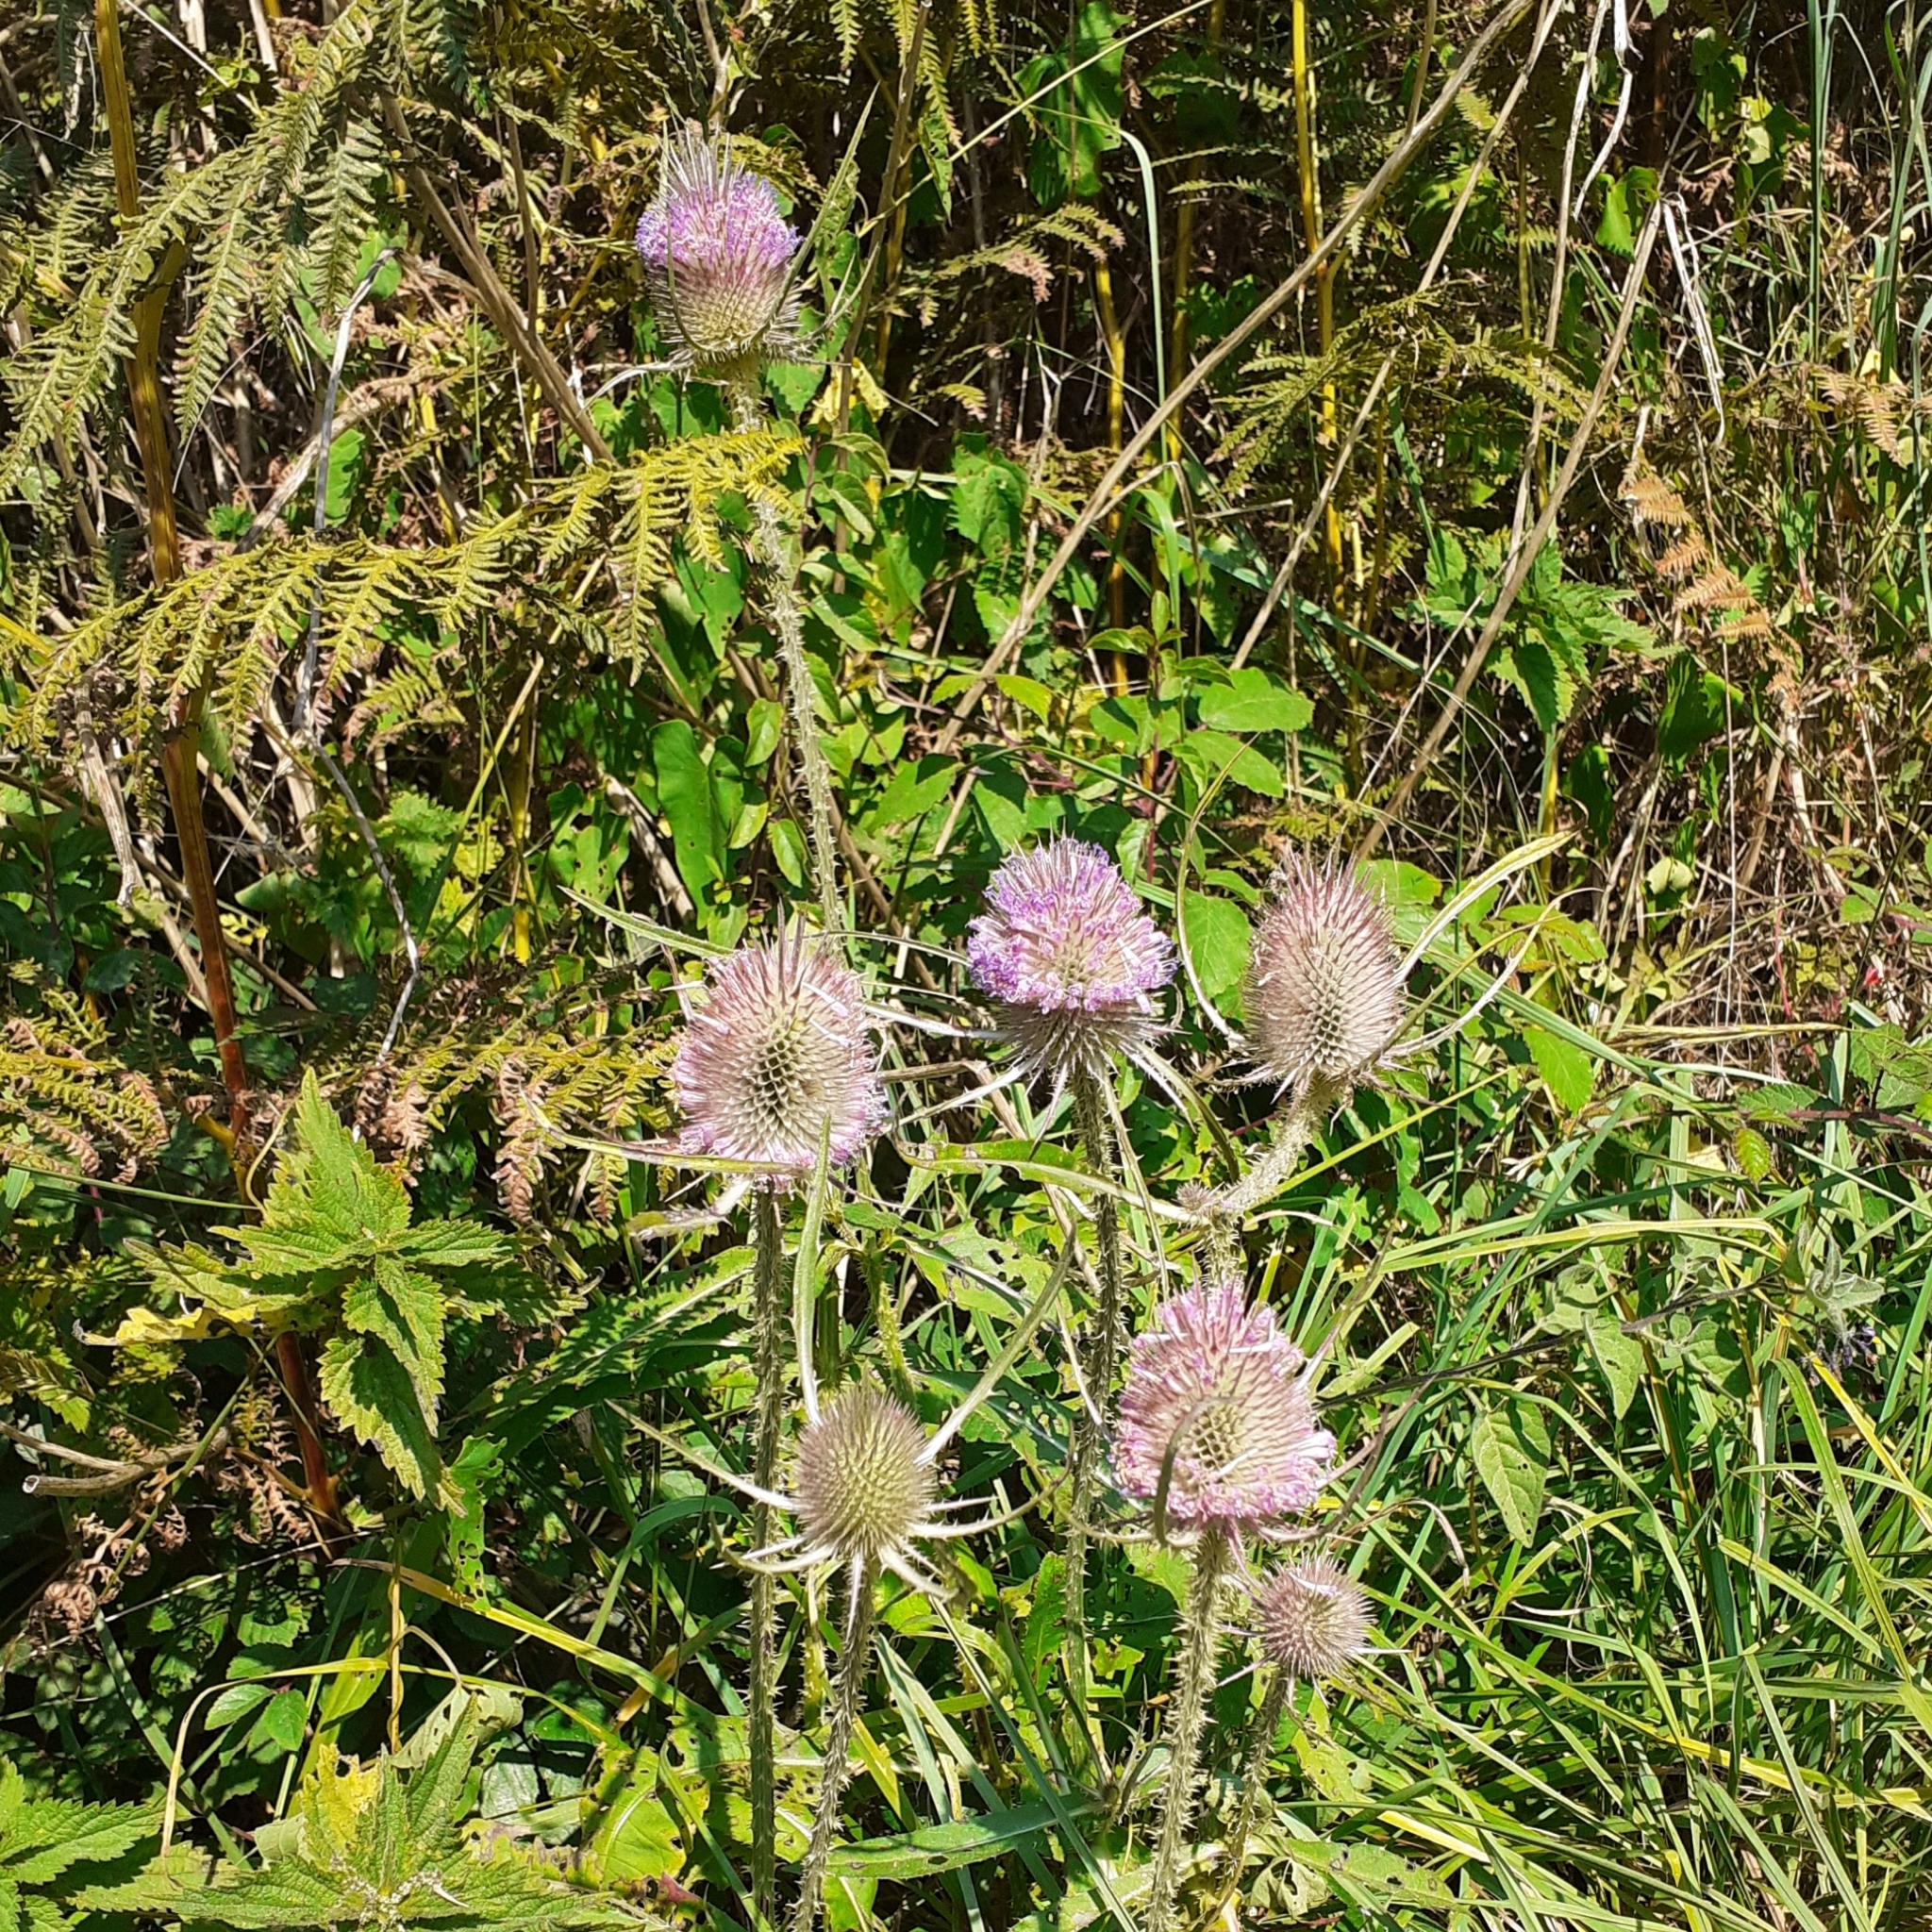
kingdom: Plantae
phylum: Tracheophyta
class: Magnoliopsida
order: Dipsacales
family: Caprifoliaceae
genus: Dipsacus
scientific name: Dipsacus fullonum
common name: Teasel
